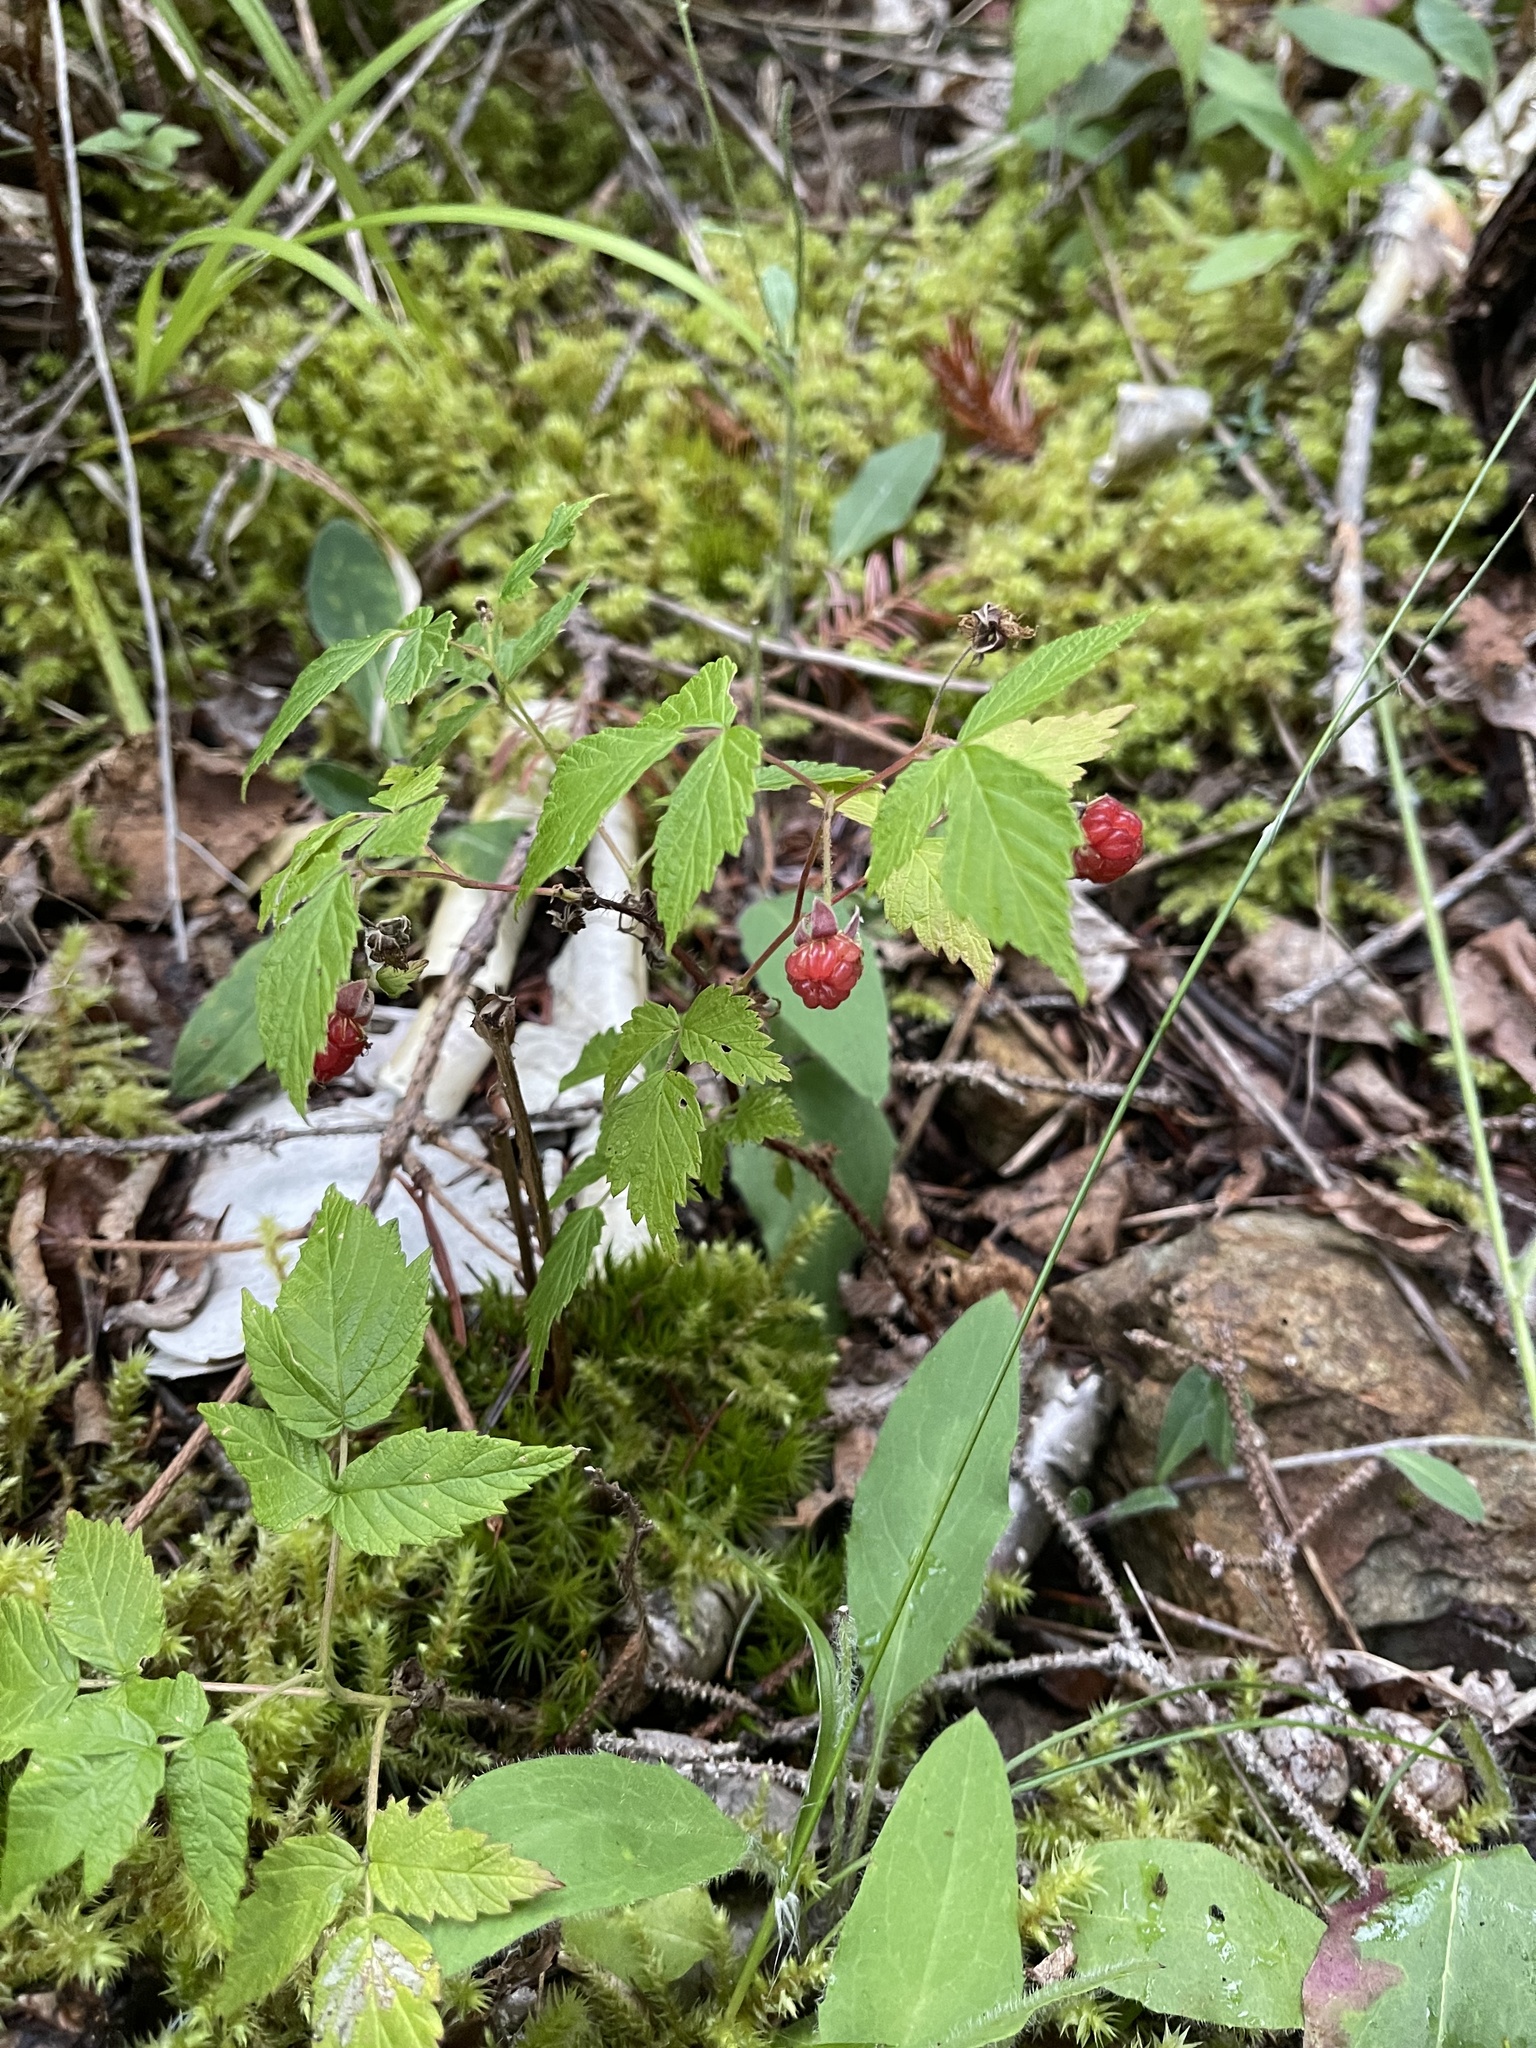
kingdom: Plantae
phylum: Tracheophyta
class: Magnoliopsida
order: Rosales
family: Rosaceae
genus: Rubus
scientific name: Rubus idaeus
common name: Raspberry
